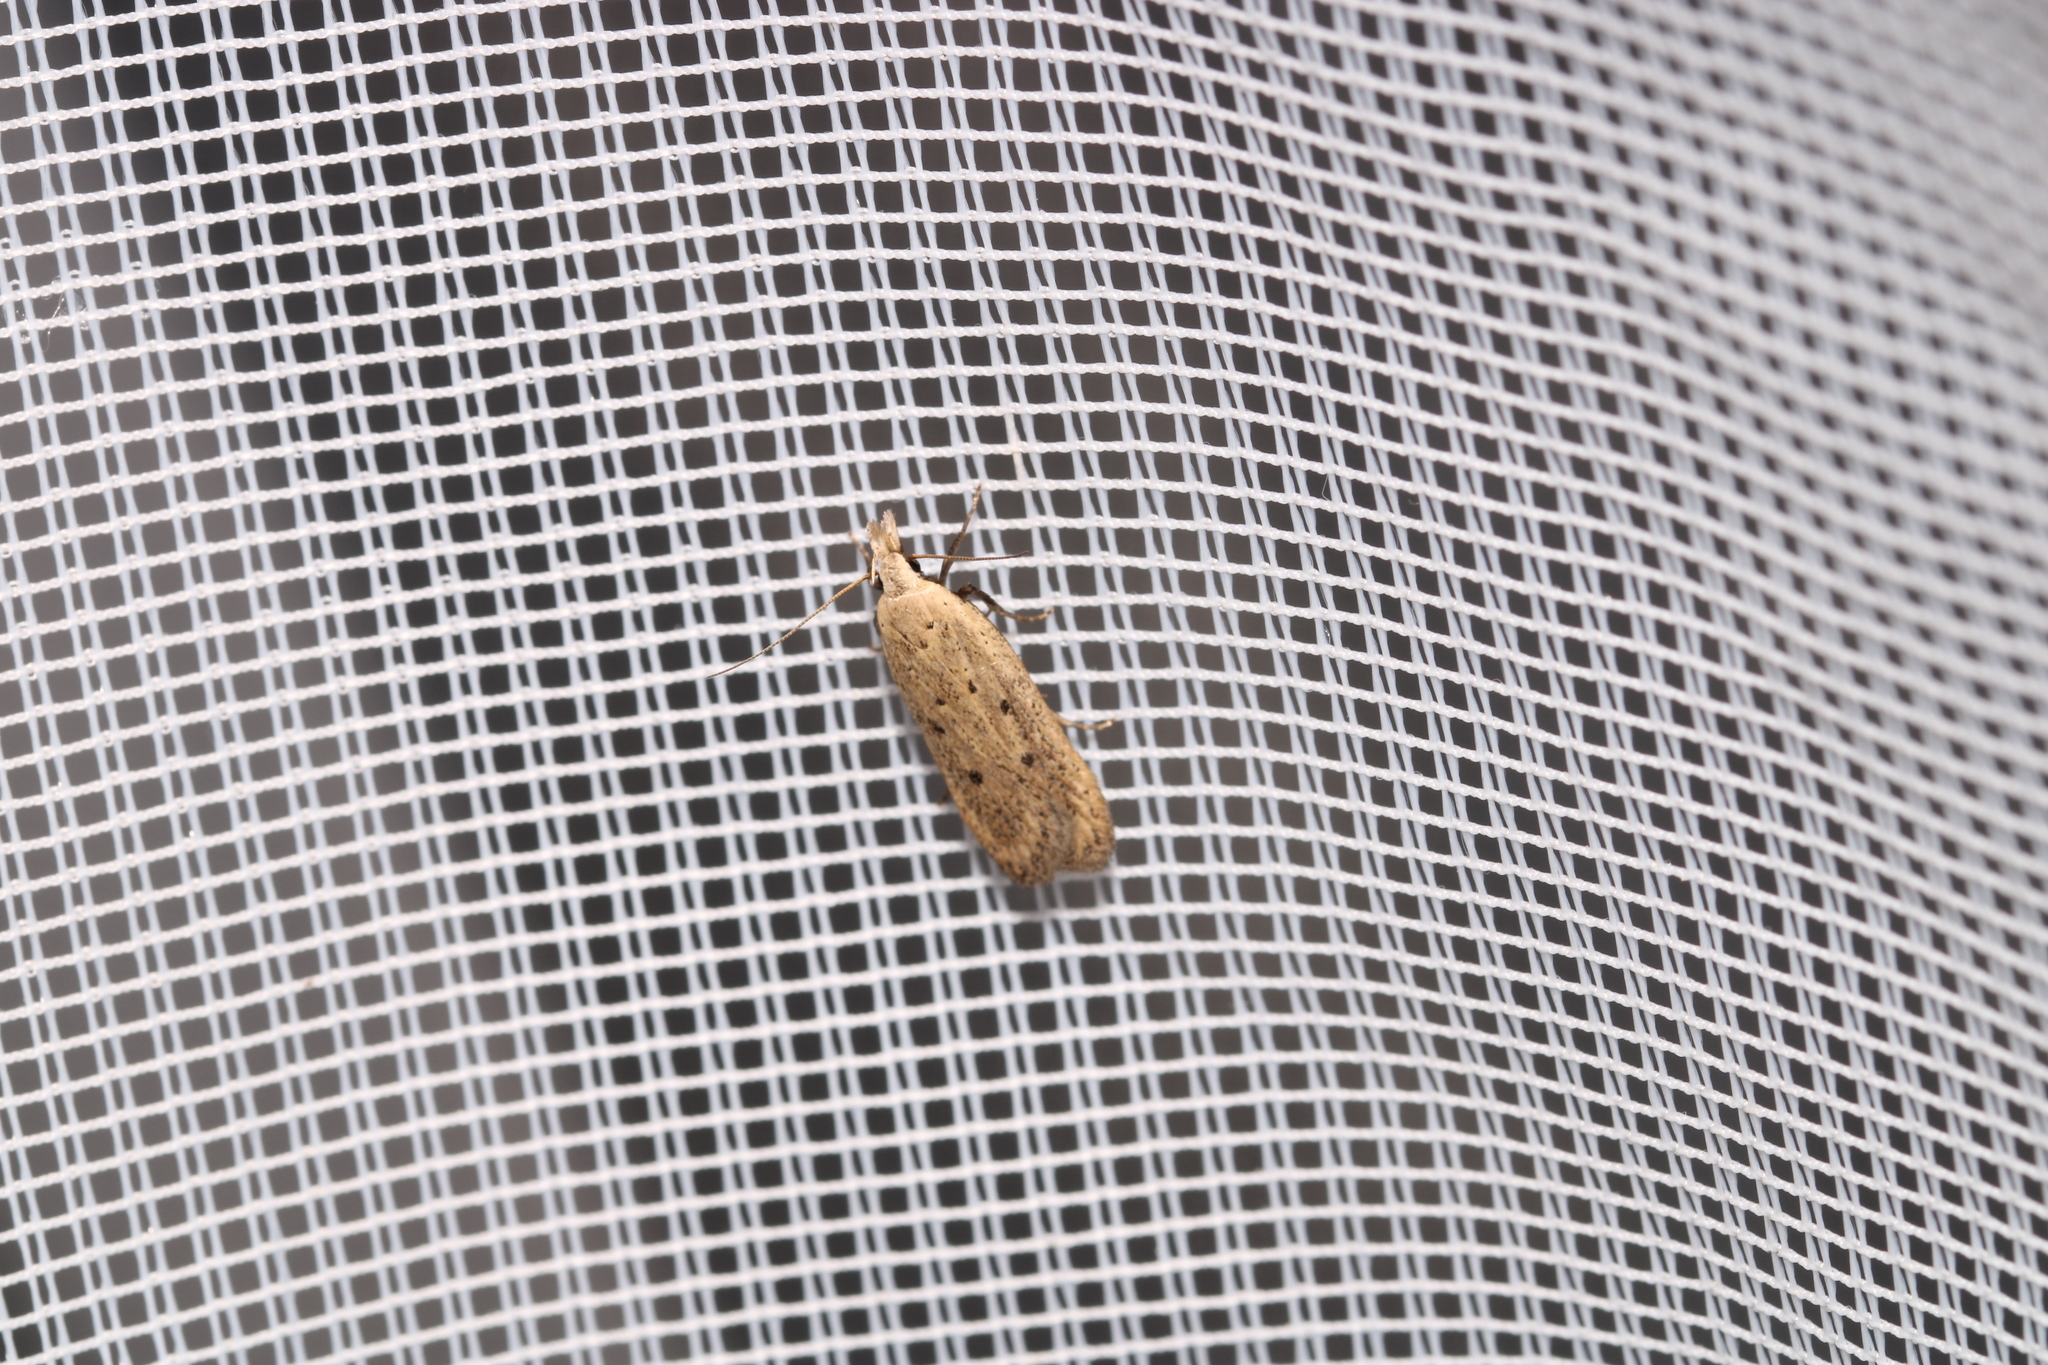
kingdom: Animalia
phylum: Arthropoda
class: Insecta
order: Lepidoptera
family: Gelechiidae
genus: Nothris
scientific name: Nothris verbascella
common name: Clay groundling
